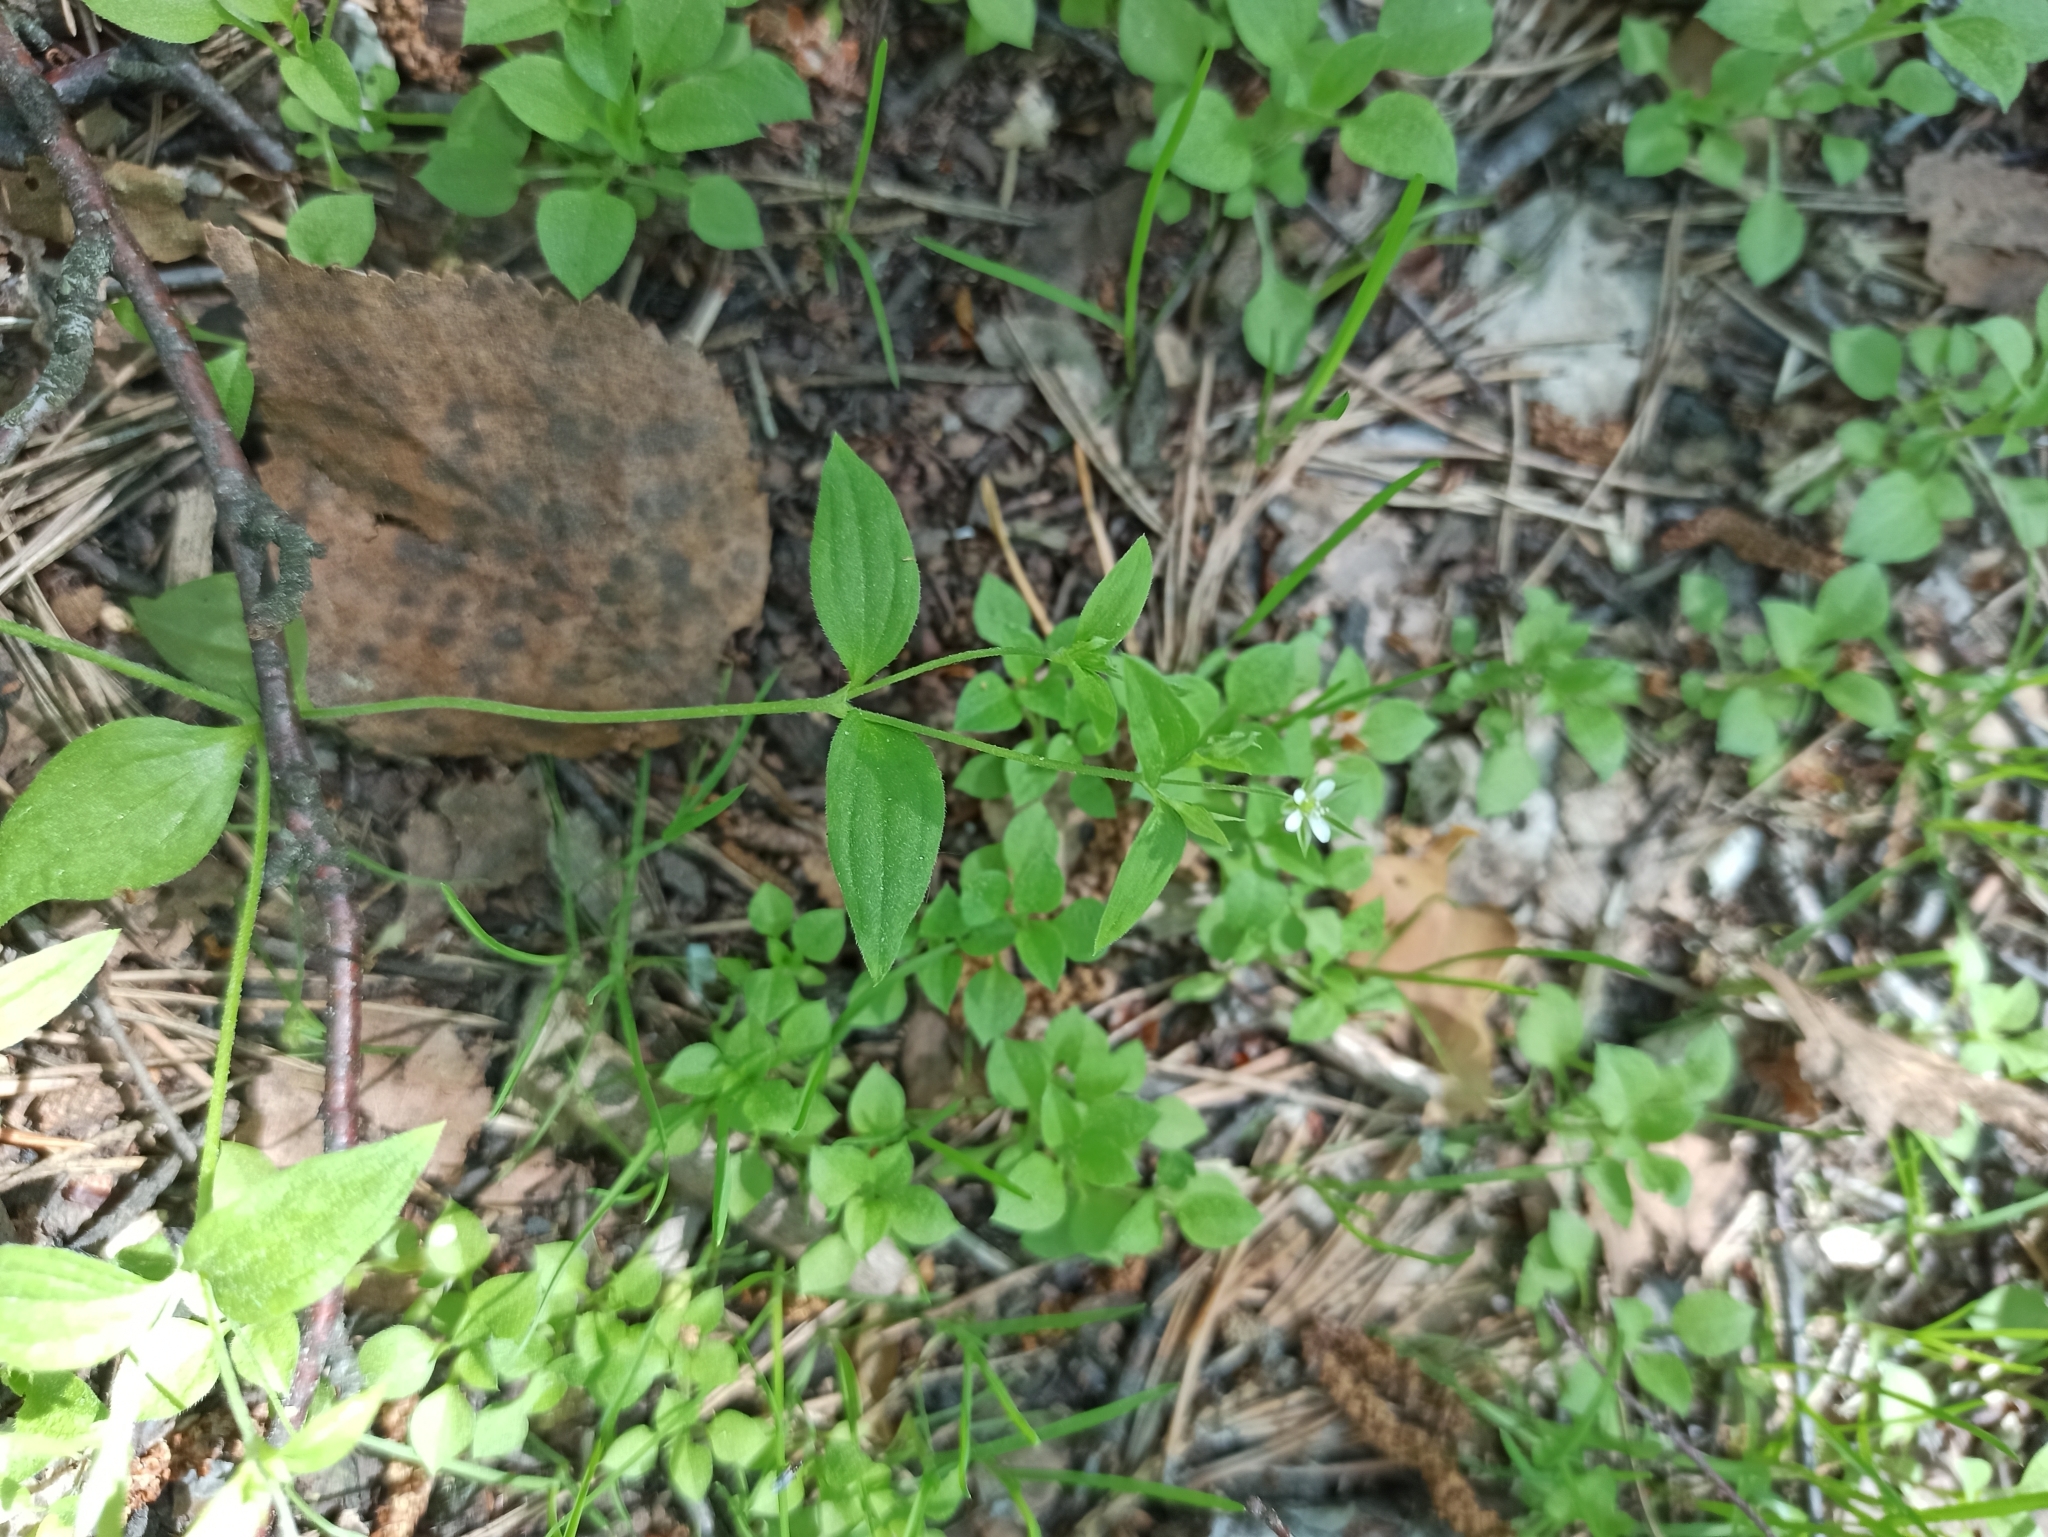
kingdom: Plantae
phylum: Tracheophyta
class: Magnoliopsida
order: Caryophyllales
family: Caryophyllaceae
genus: Moehringia
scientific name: Moehringia trinervia
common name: Three-nerved sandwort
